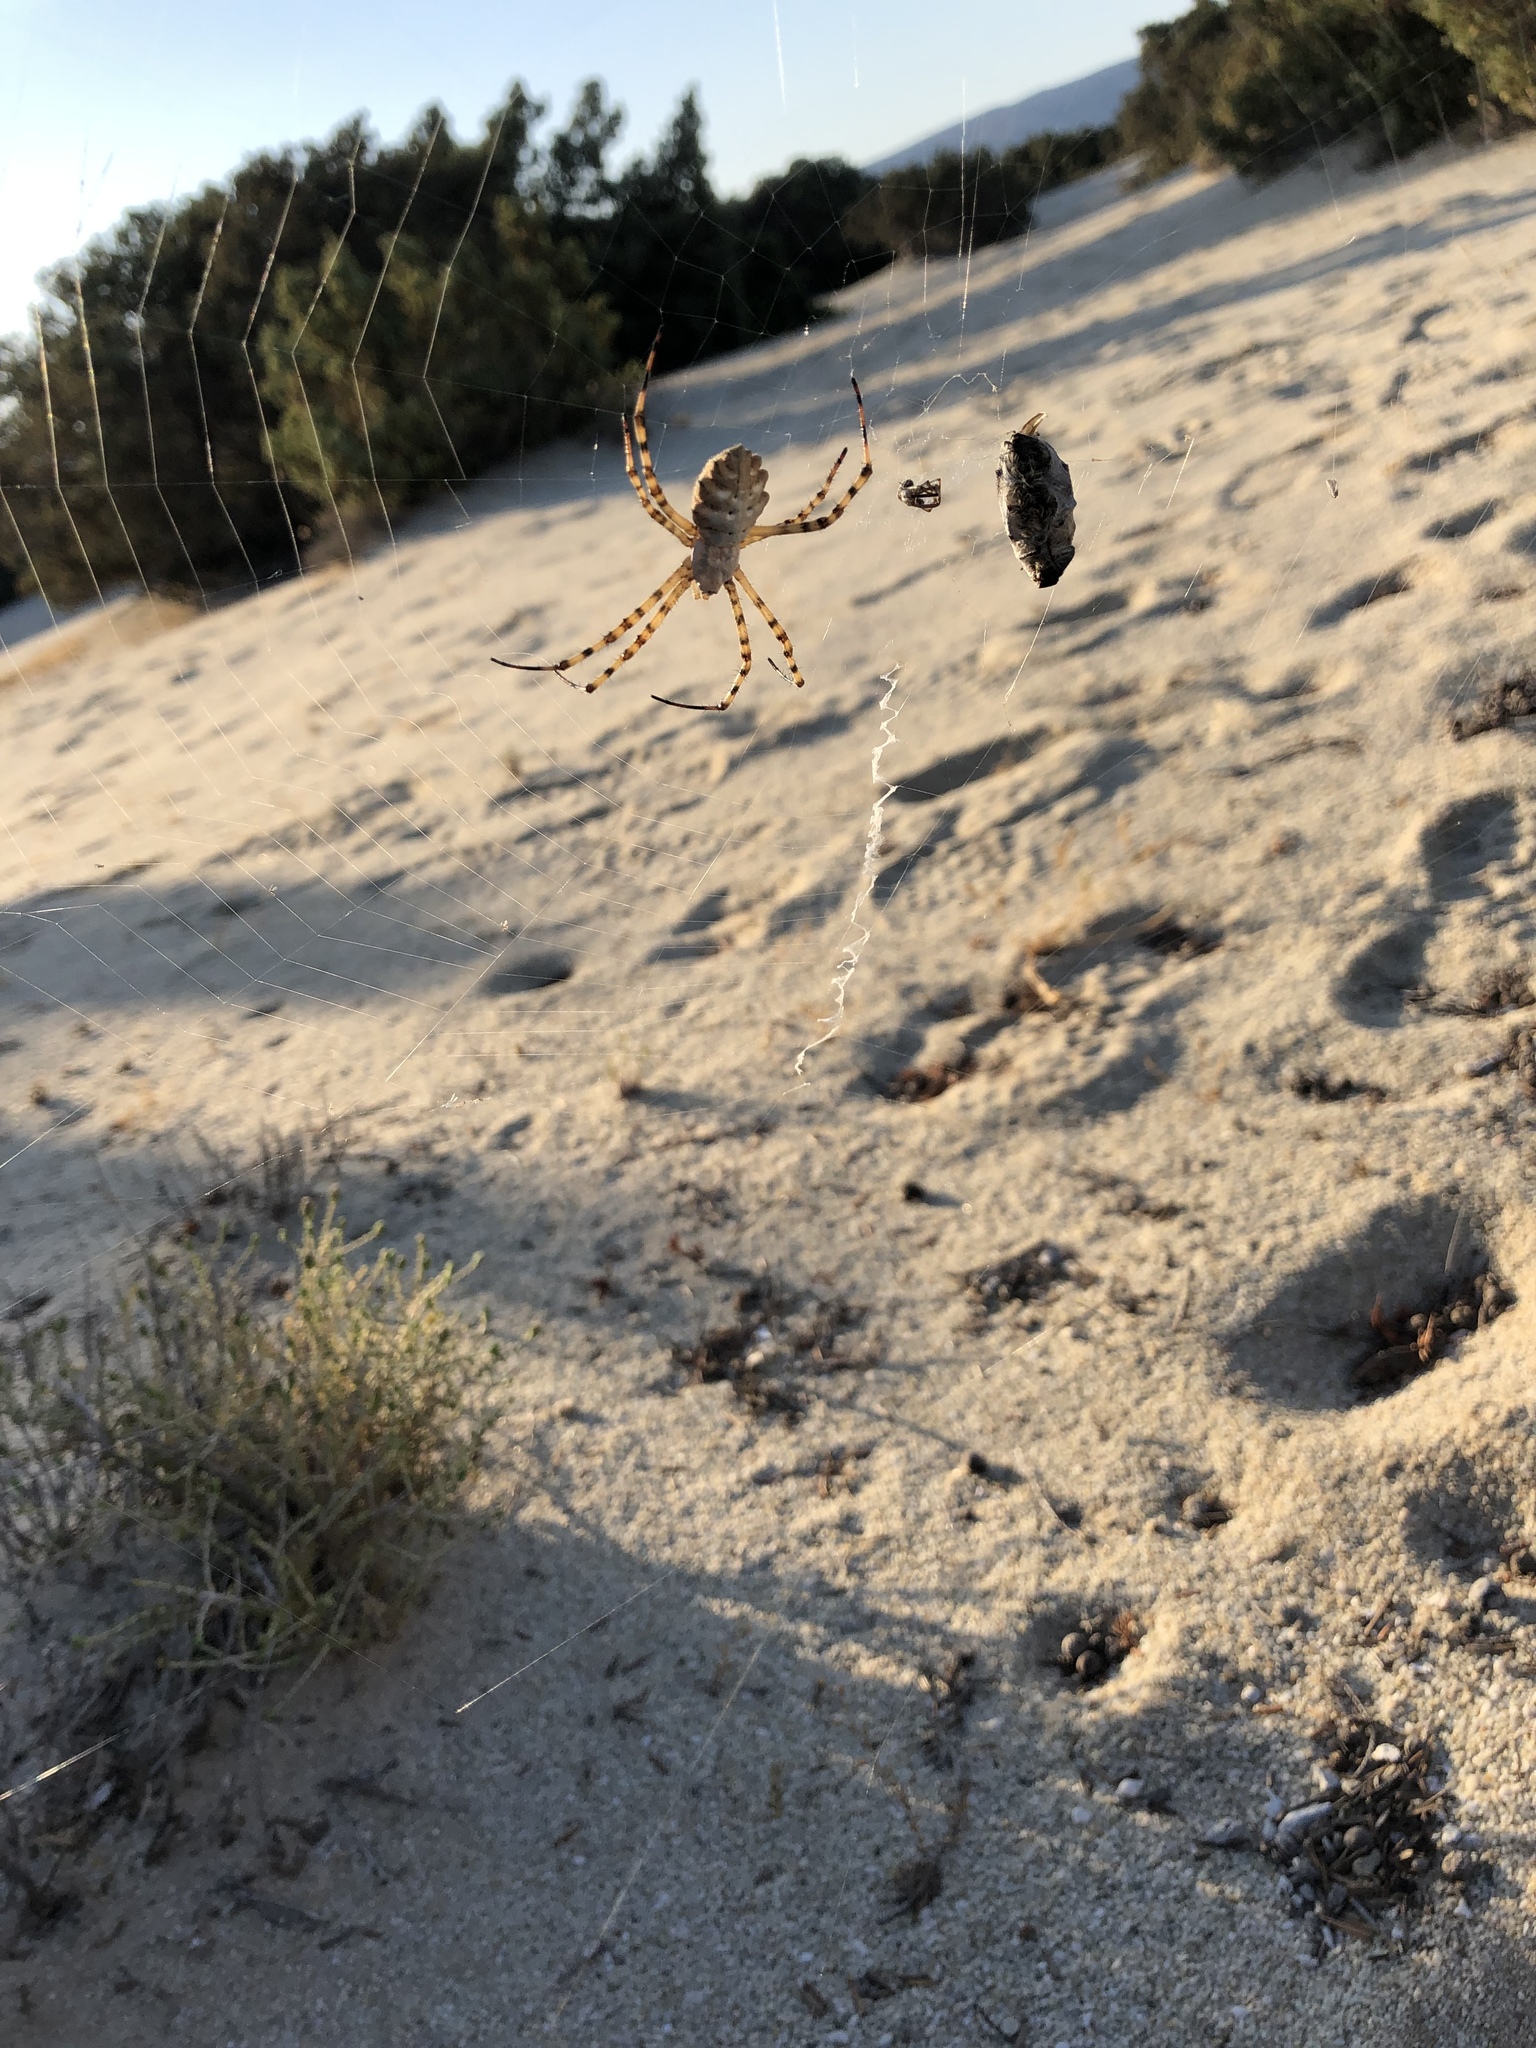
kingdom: Animalia
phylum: Arthropoda
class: Arachnida
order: Araneae
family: Araneidae
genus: Argiope
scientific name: Argiope lobata
